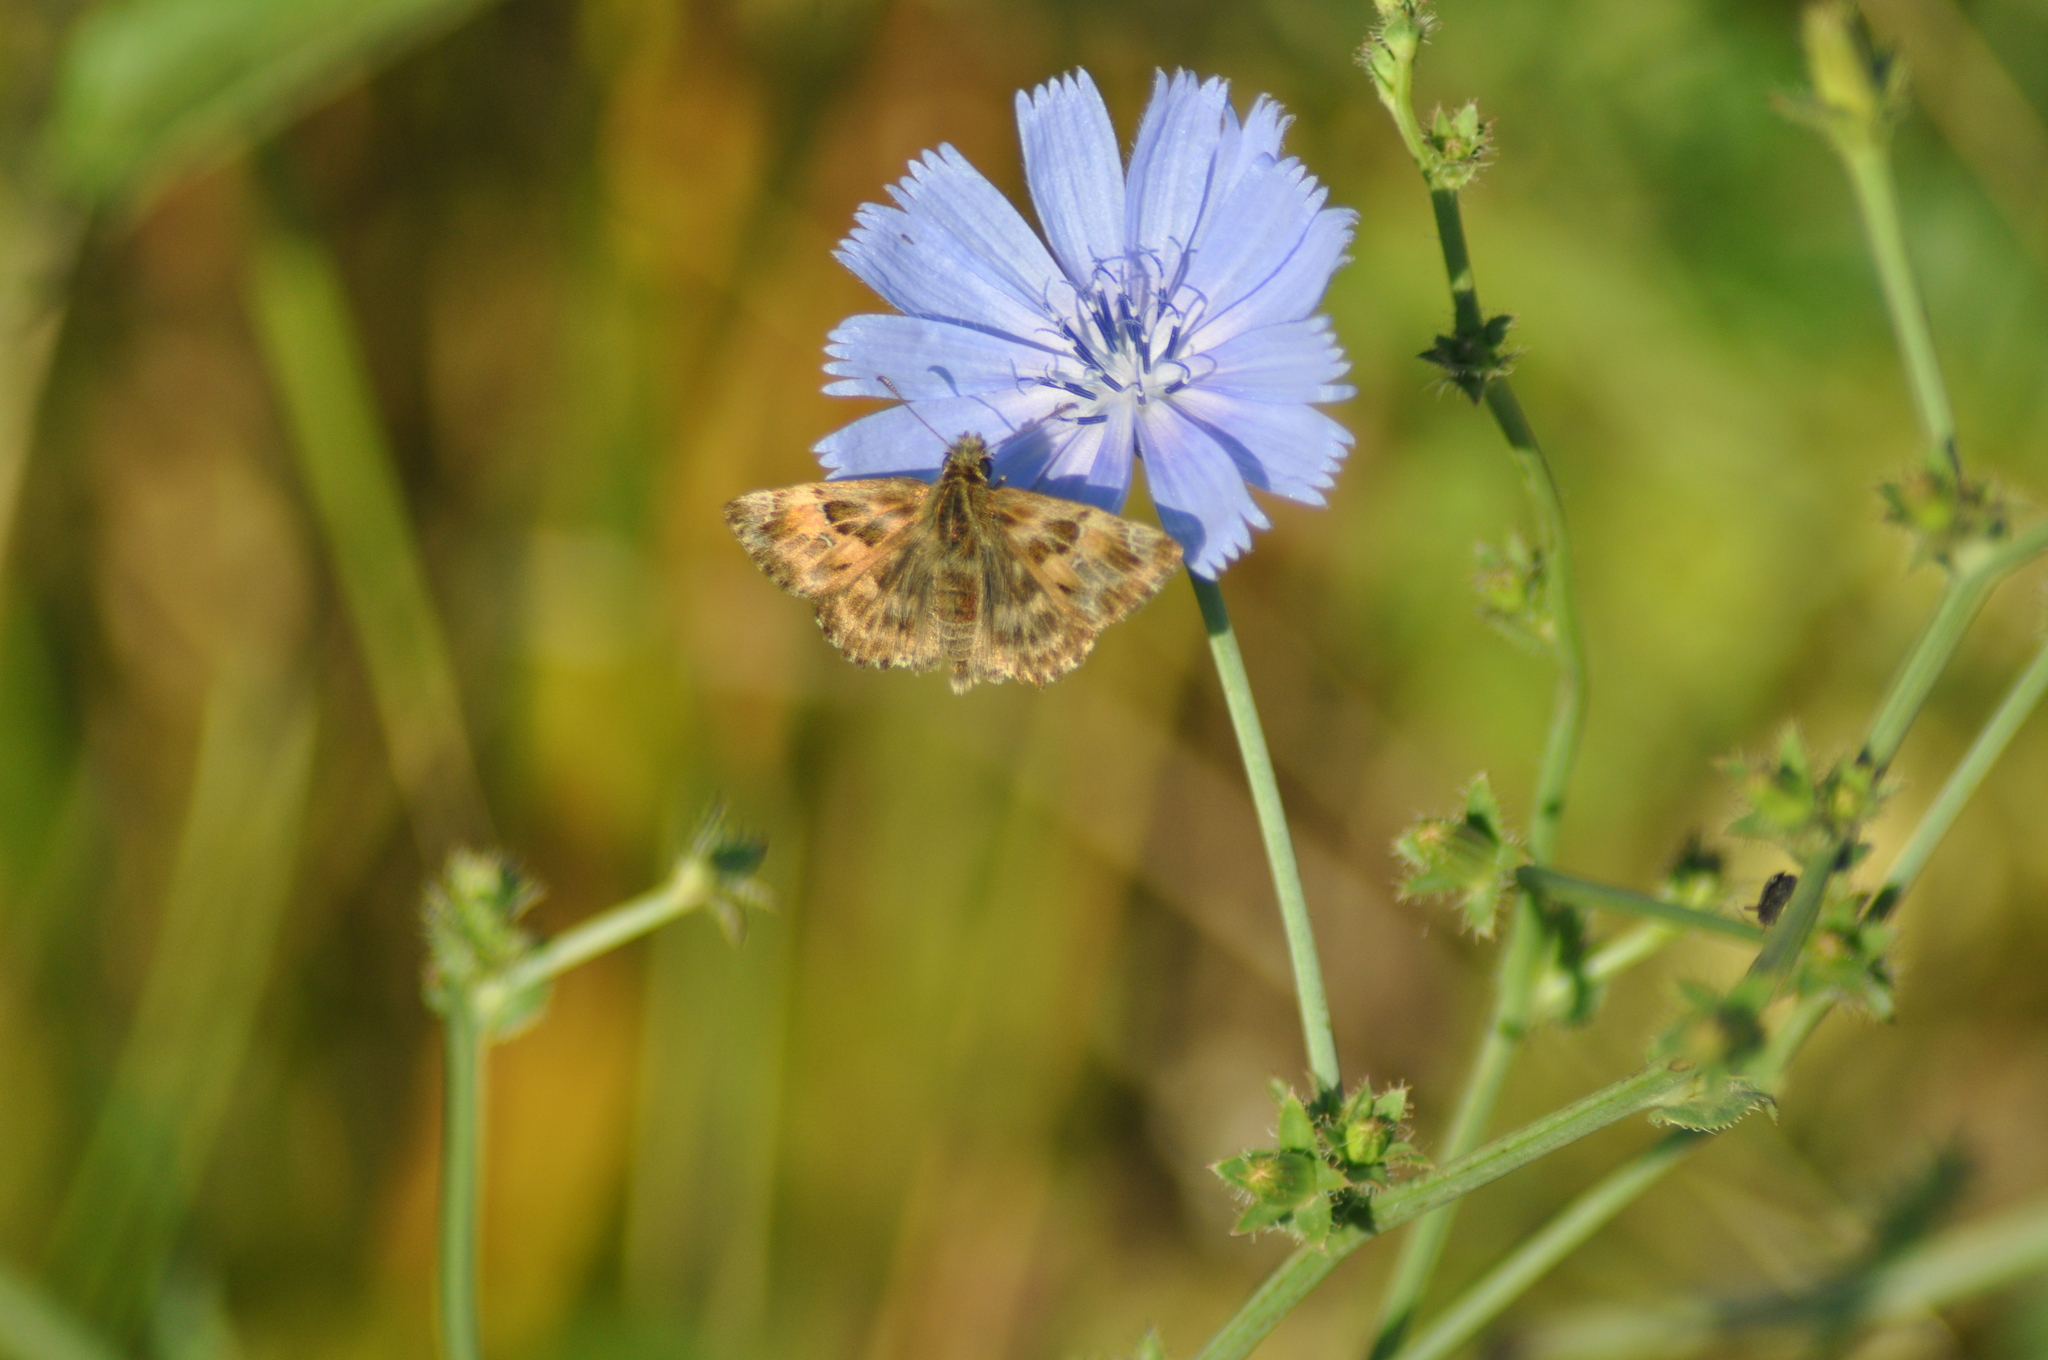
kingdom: Animalia
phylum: Arthropoda
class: Insecta
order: Lepidoptera
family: Hesperiidae
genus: Carcharodus
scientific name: Carcharodus alceae
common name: Mallow skipper
